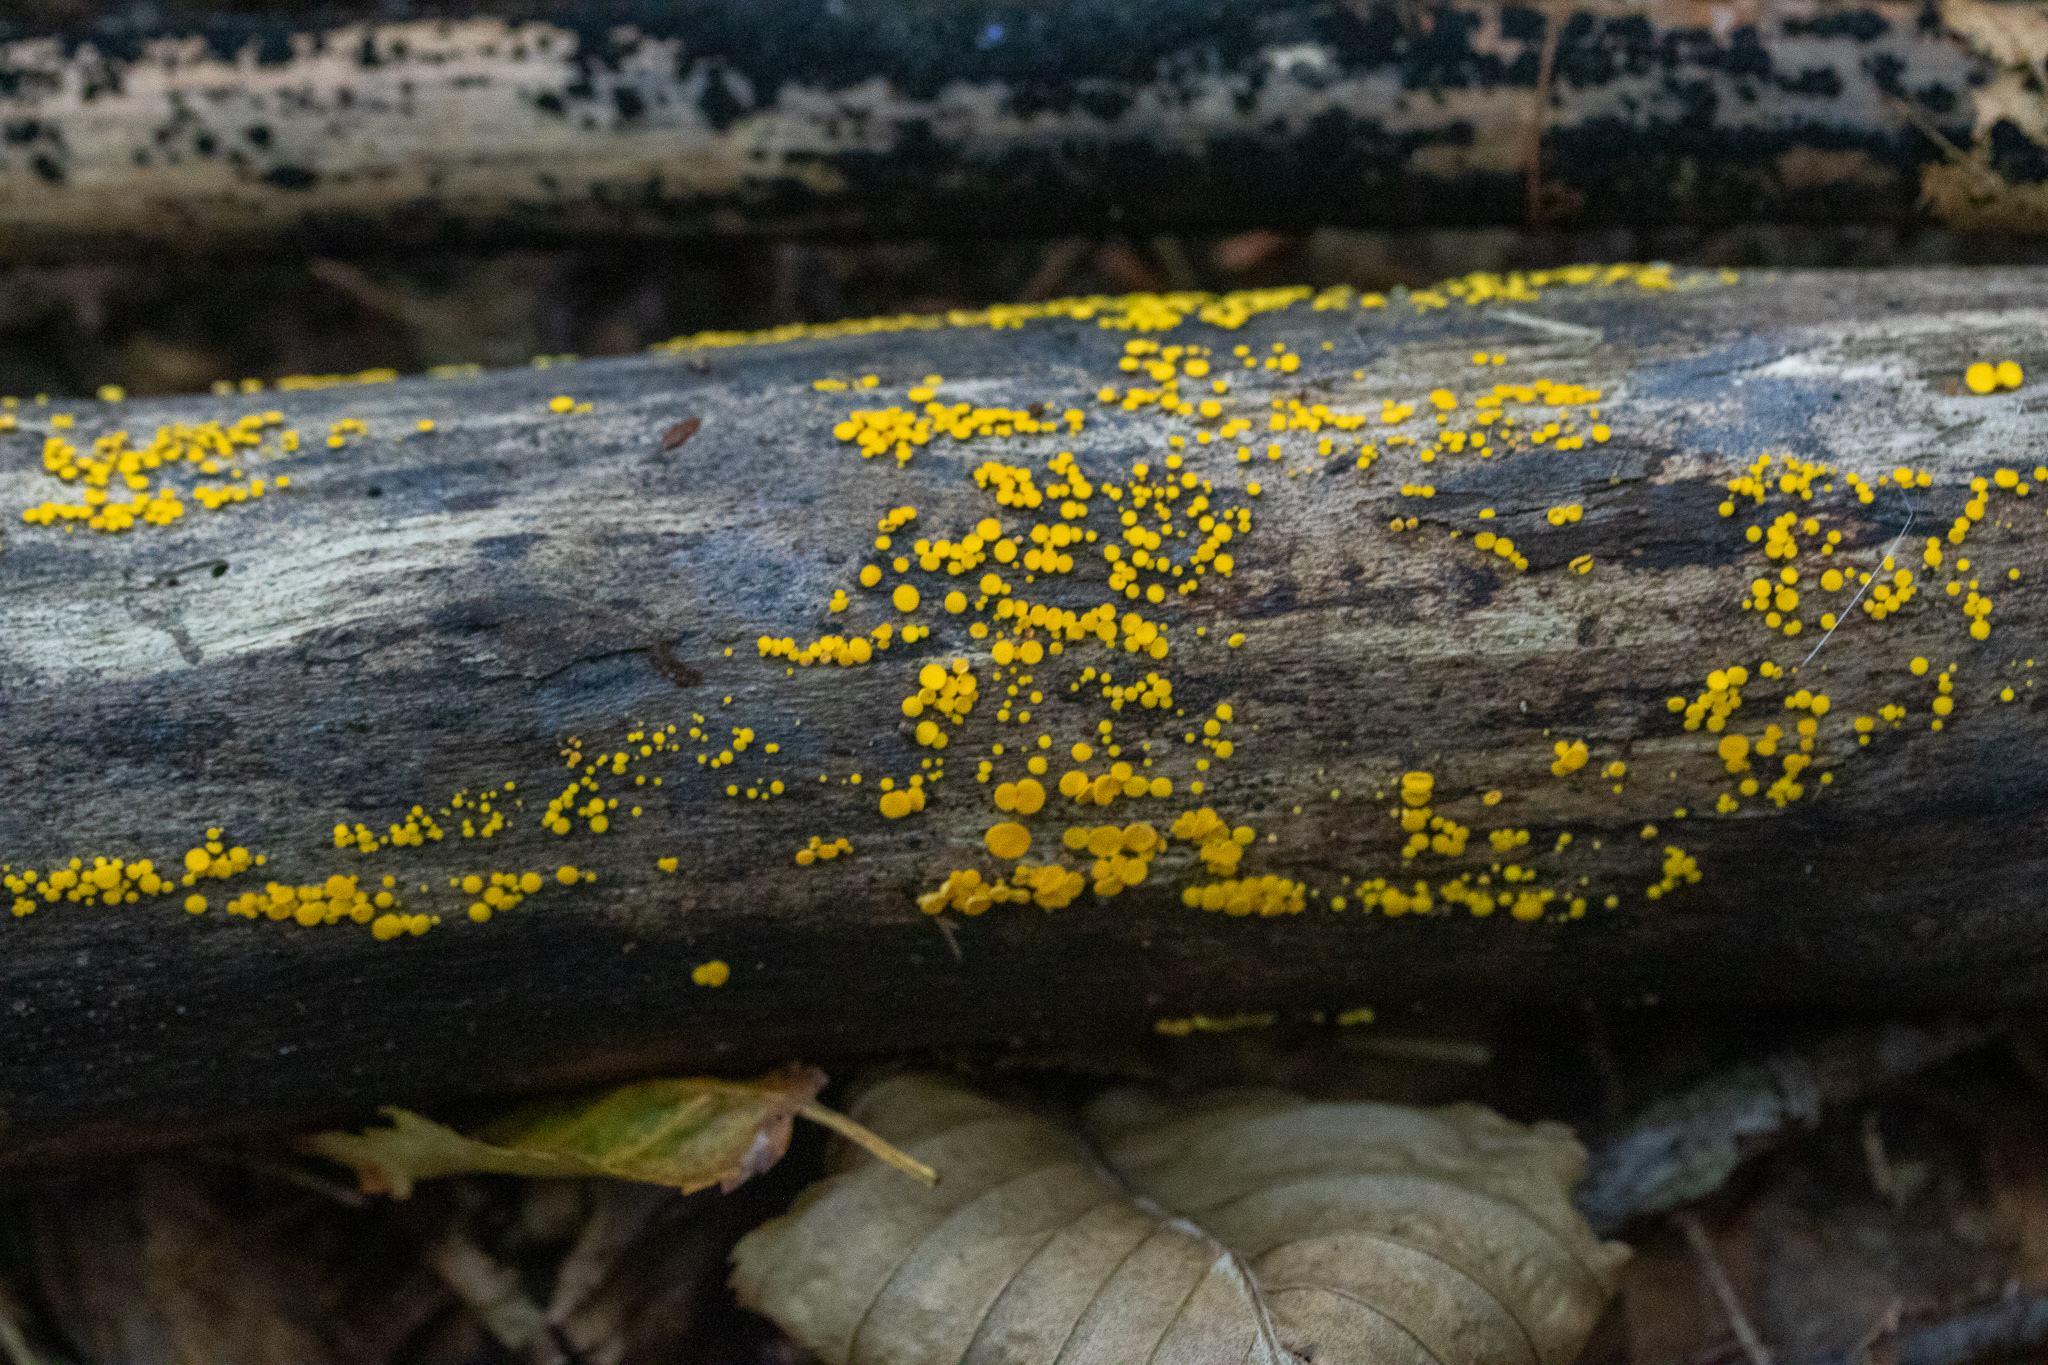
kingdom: Fungi
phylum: Ascomycota
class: Leotiomycetes
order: Helotiales
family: Pezizellaceae
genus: Calycina
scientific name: Calycina citrina
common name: Yellow fairy cups
